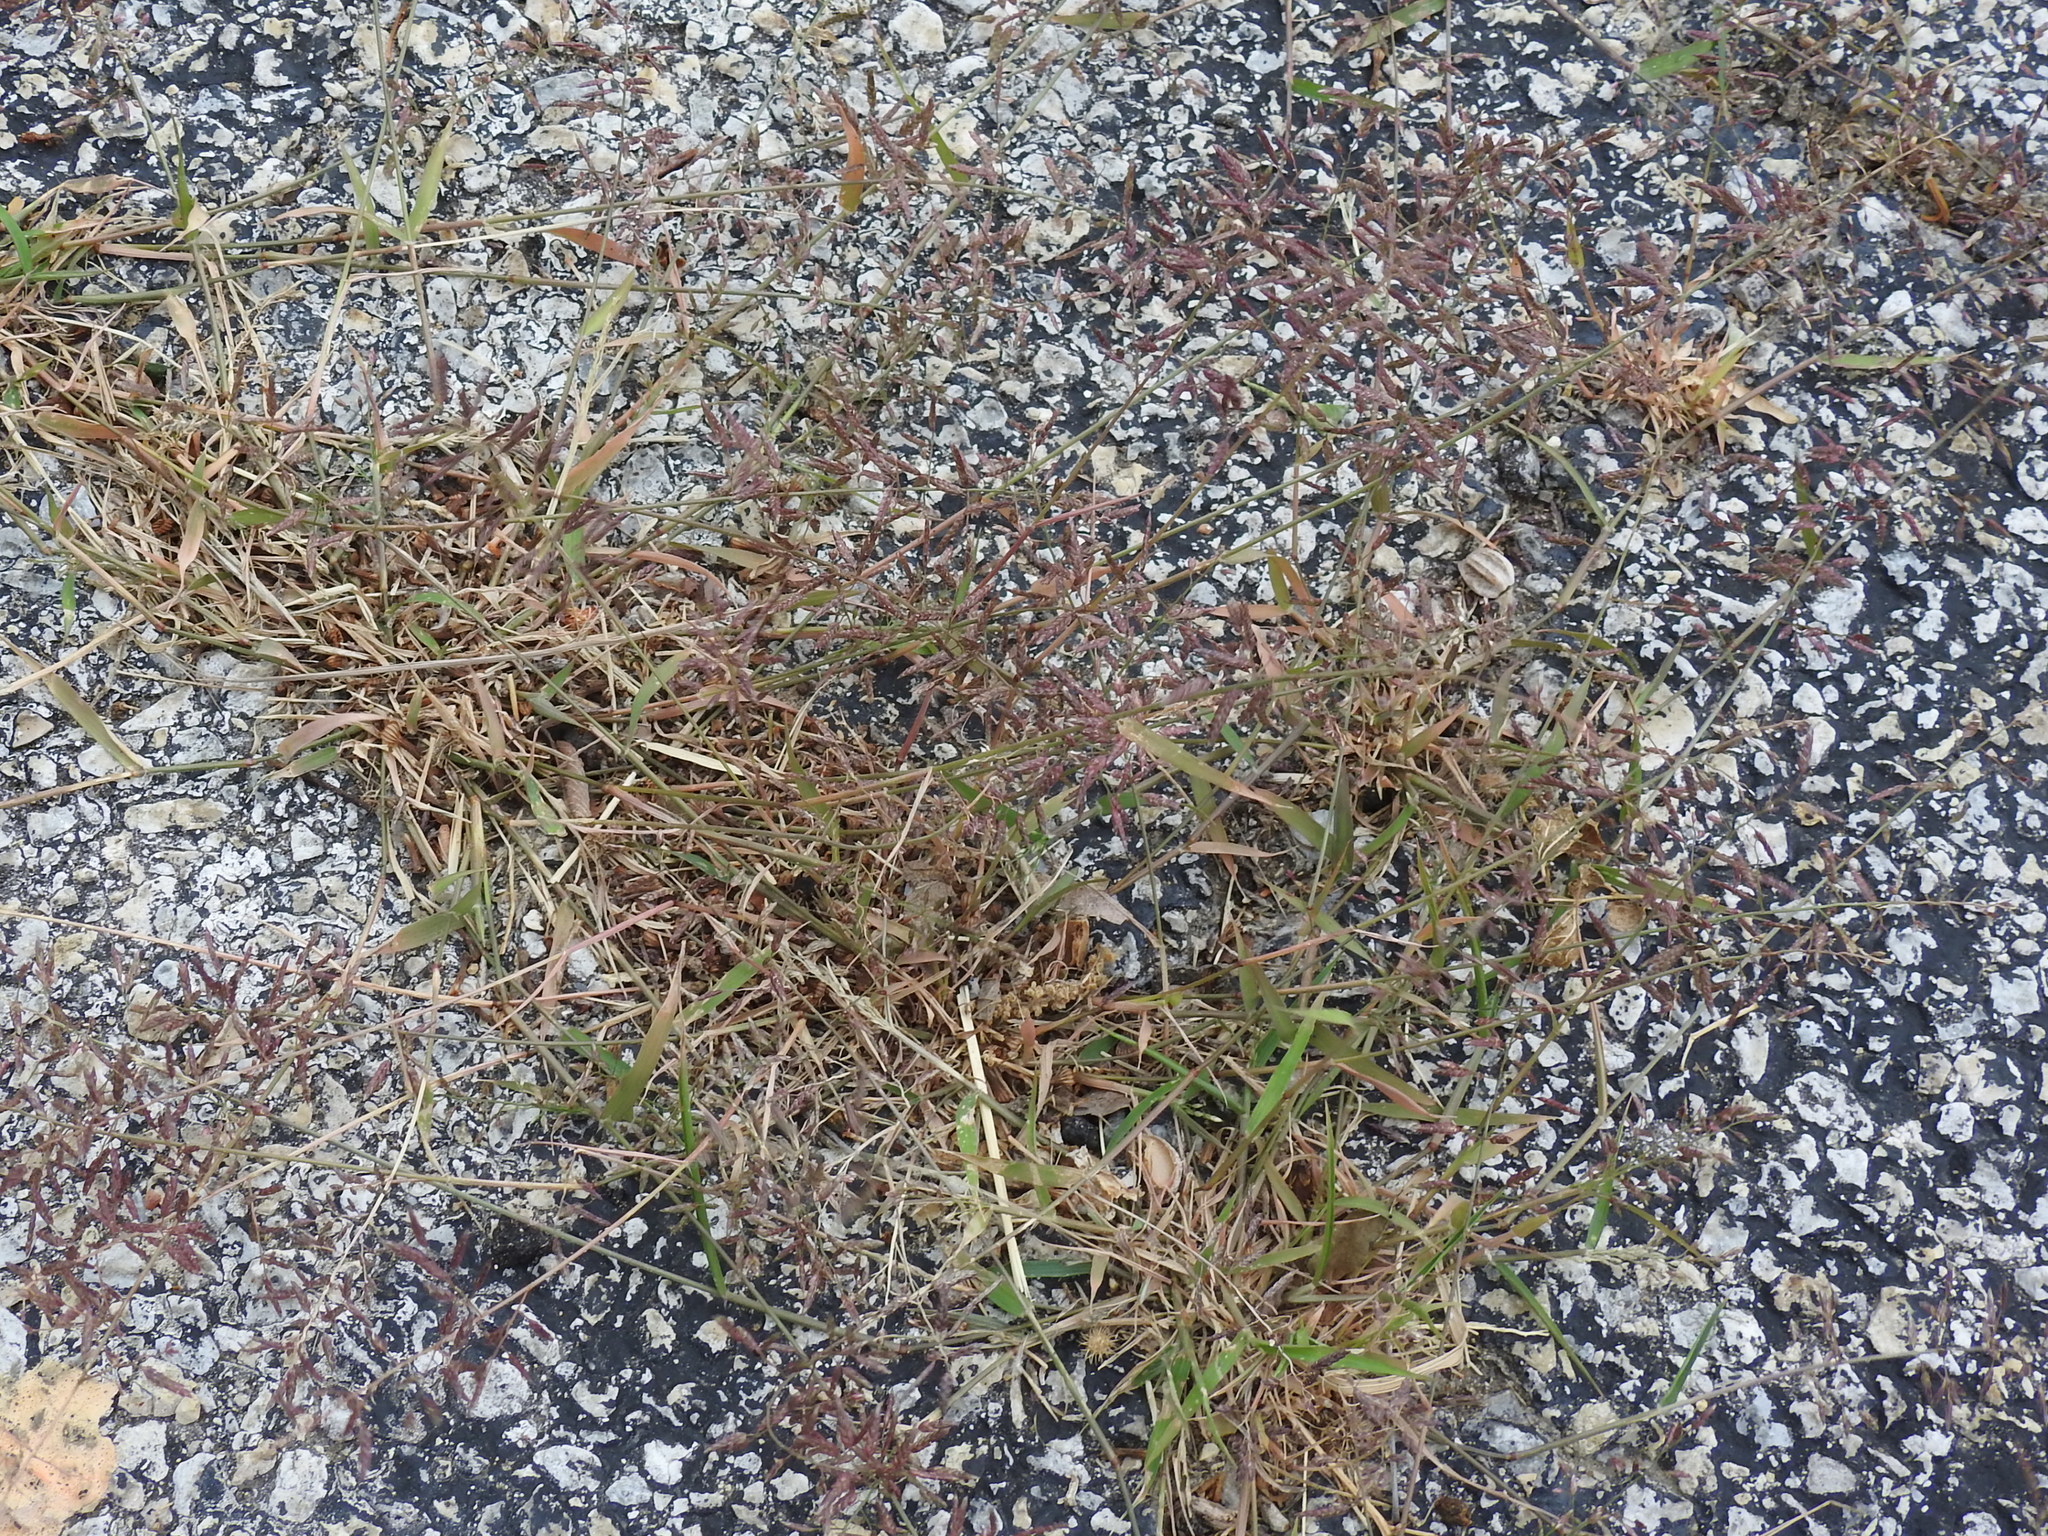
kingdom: Plantae
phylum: Tracheophyta
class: Liliopsida
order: Poales
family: Poaceae
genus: Eragrostis
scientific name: Eragrostis cilianensis
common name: Stinkgrass
